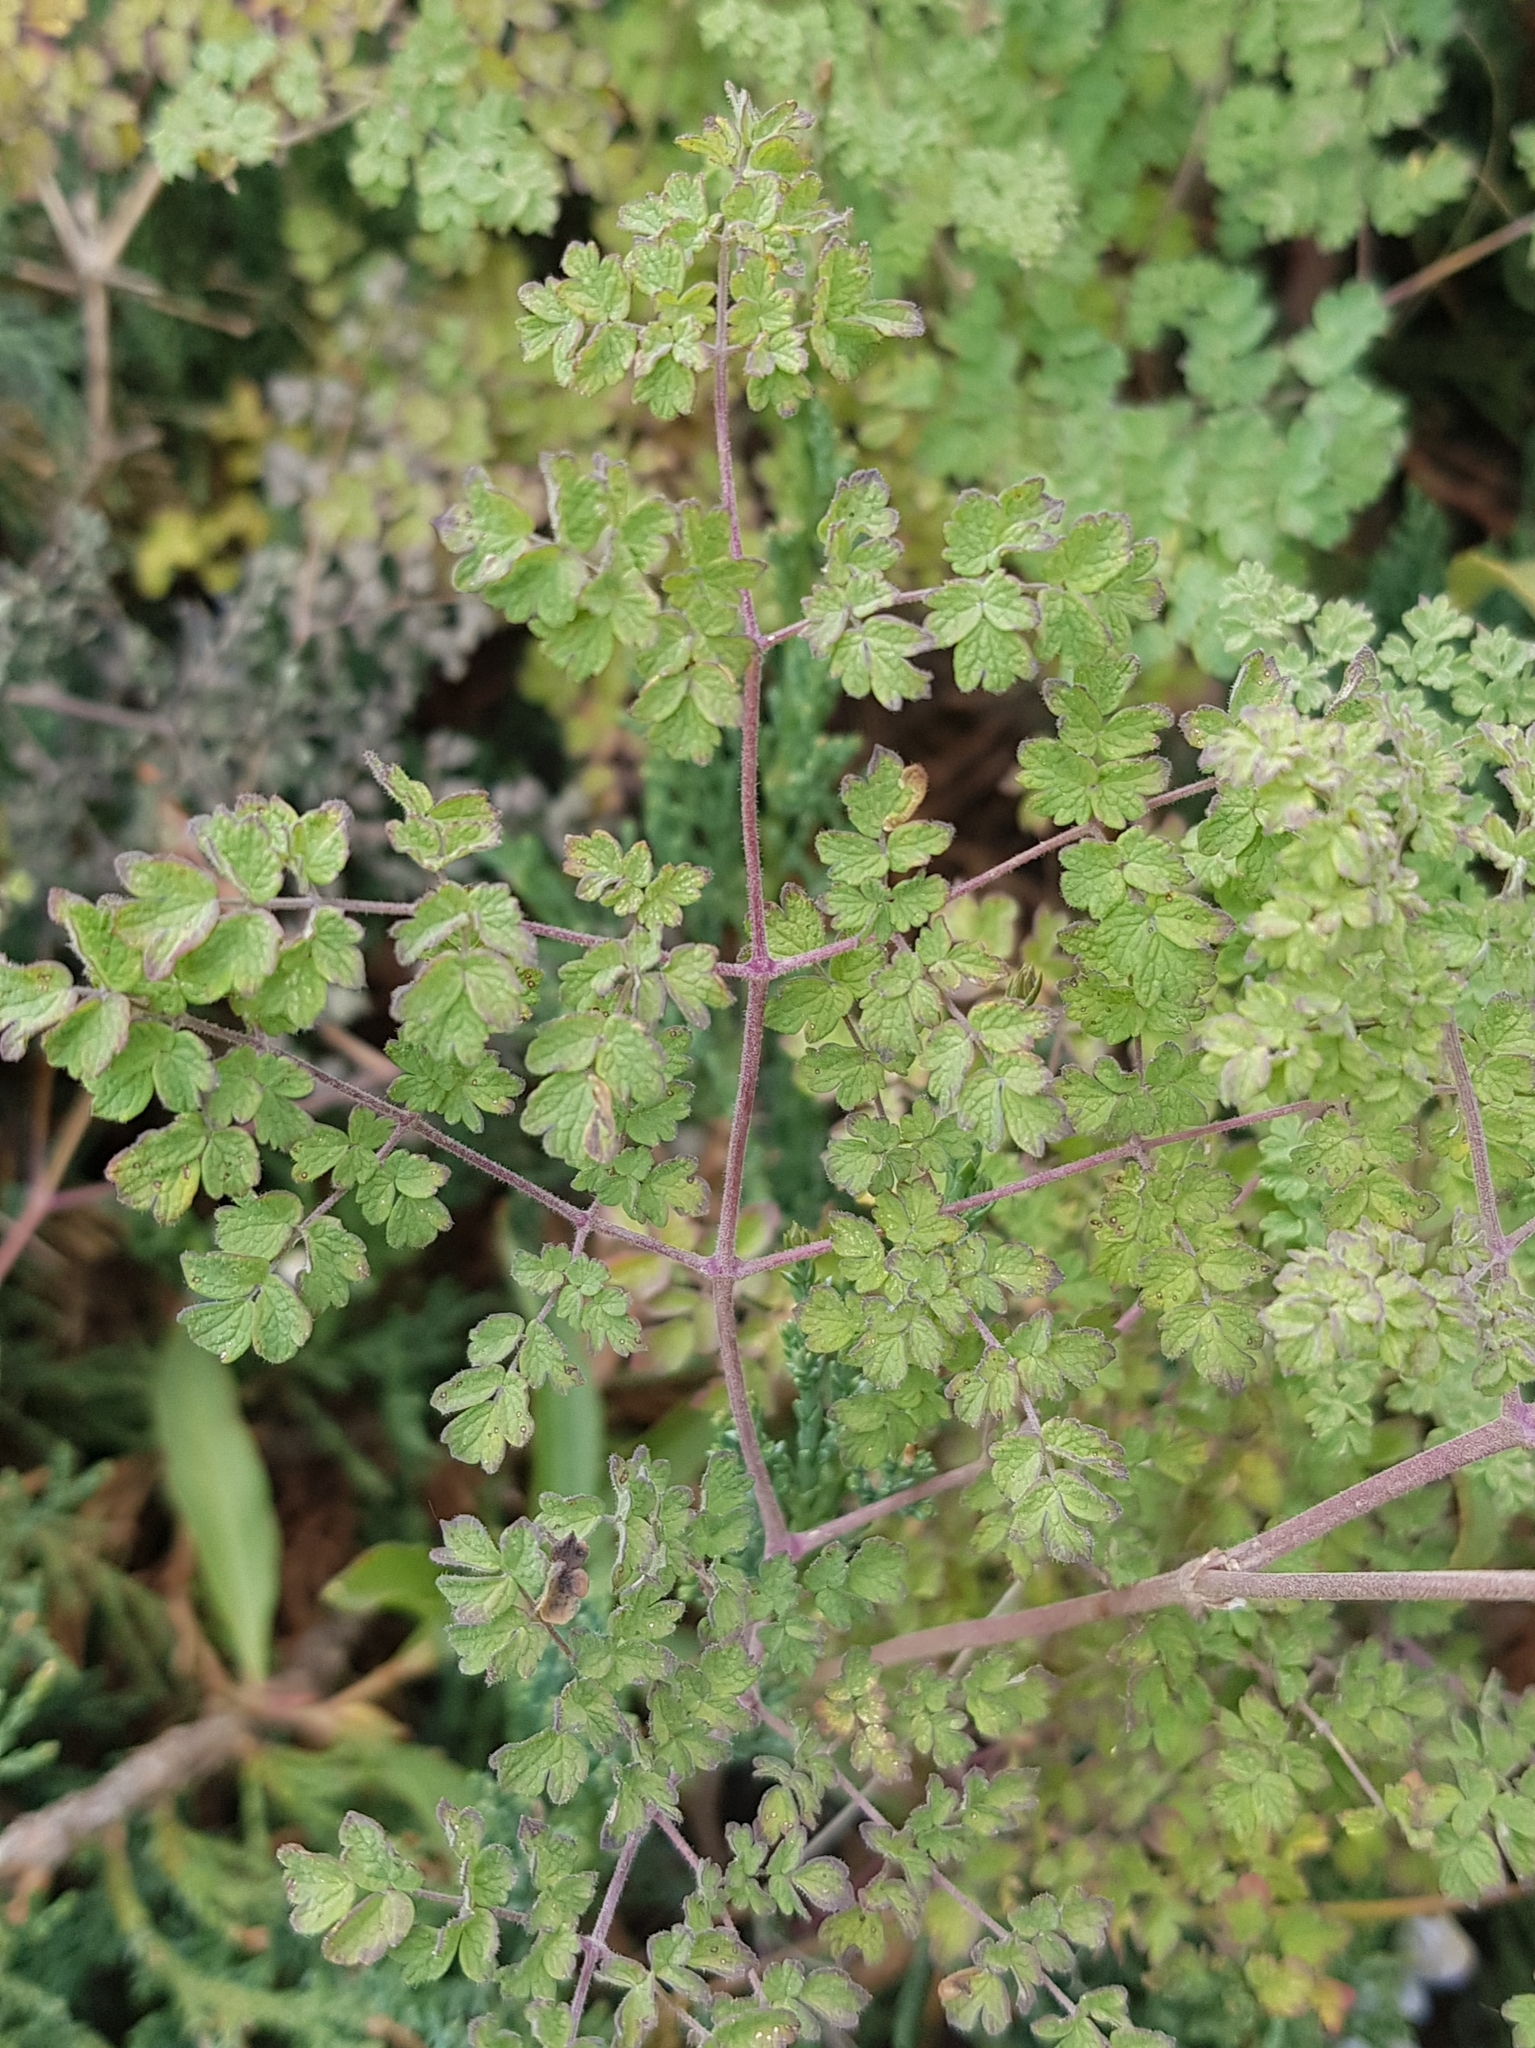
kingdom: Plantae
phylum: Tracheophyta
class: Magnoliopsida
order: Ranunculales
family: Ranunculaceae
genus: Thalictrum
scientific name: Thalictrum foetidum
